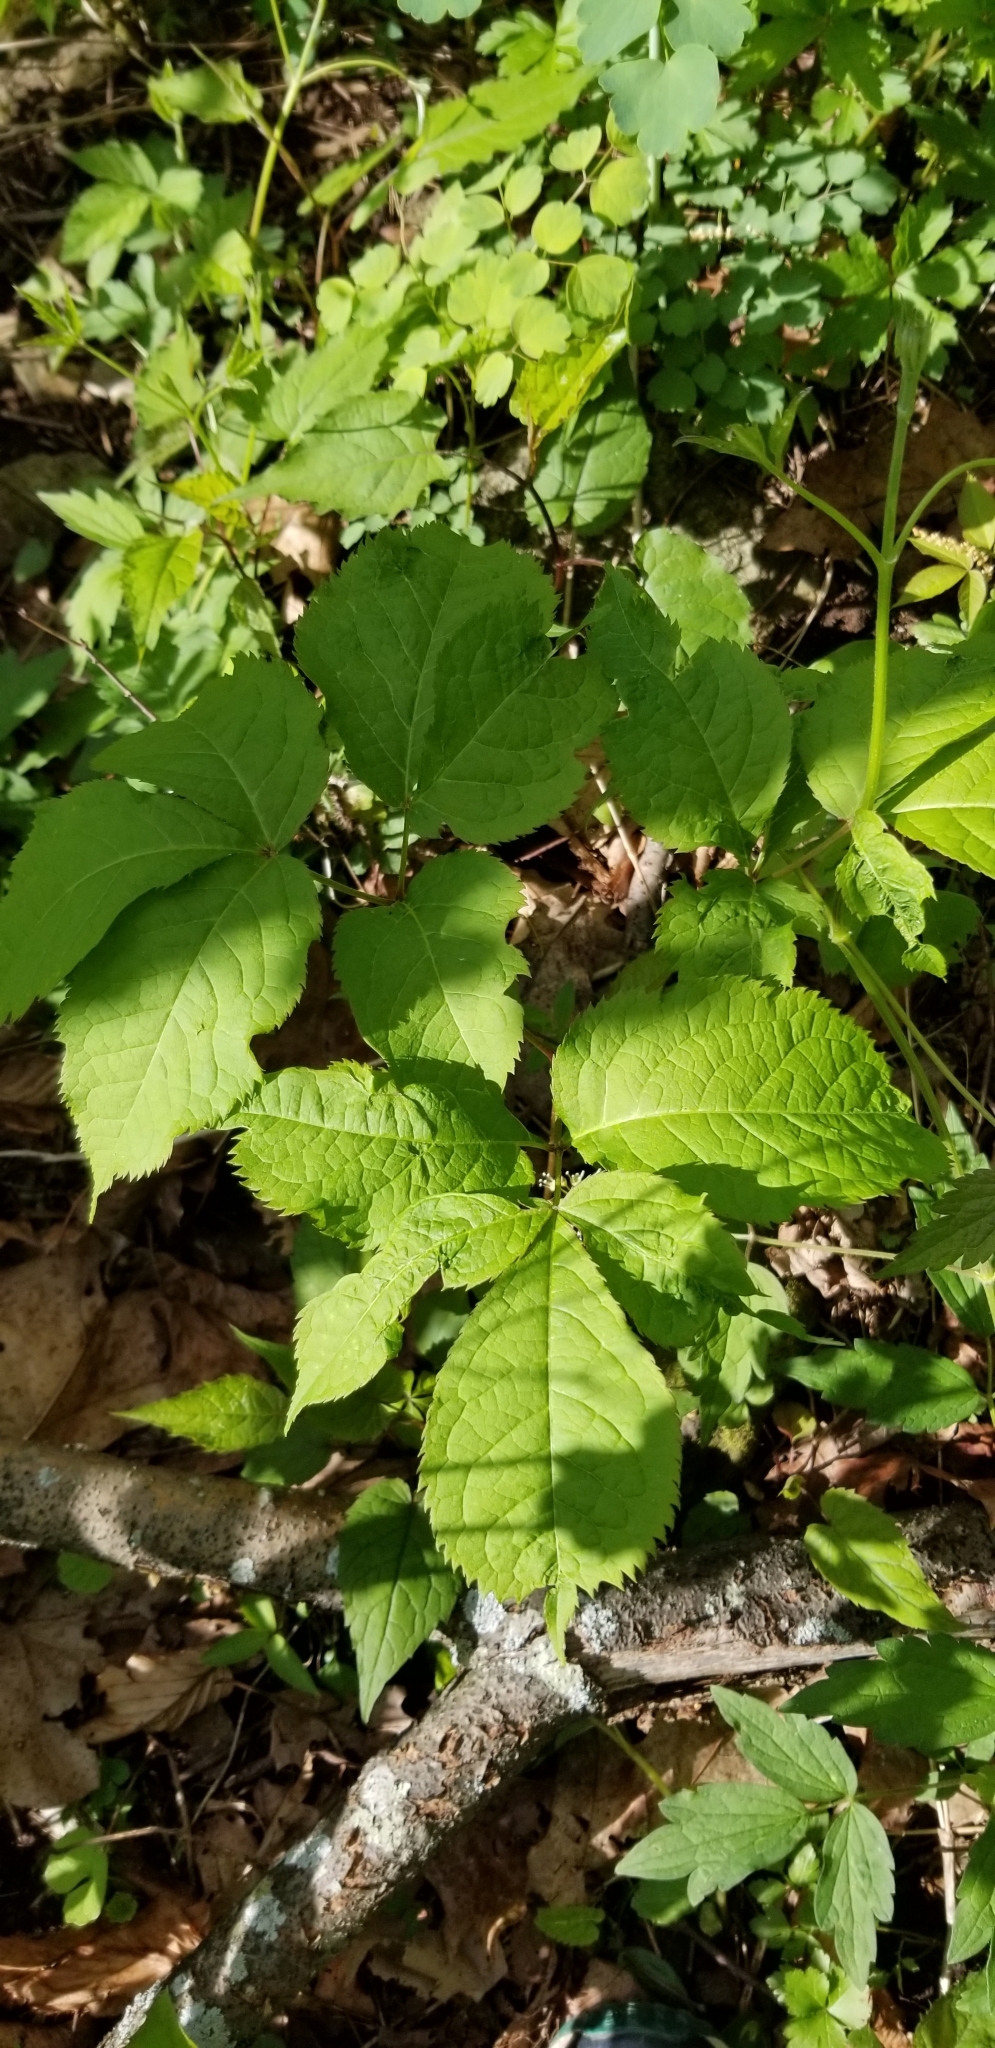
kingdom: Plantae
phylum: Tracheophyta
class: Magnoliopsida
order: Apiales
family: Araliaceae
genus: Aralia
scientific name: Aralia nudicaulis
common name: Wild sarsaparilla
